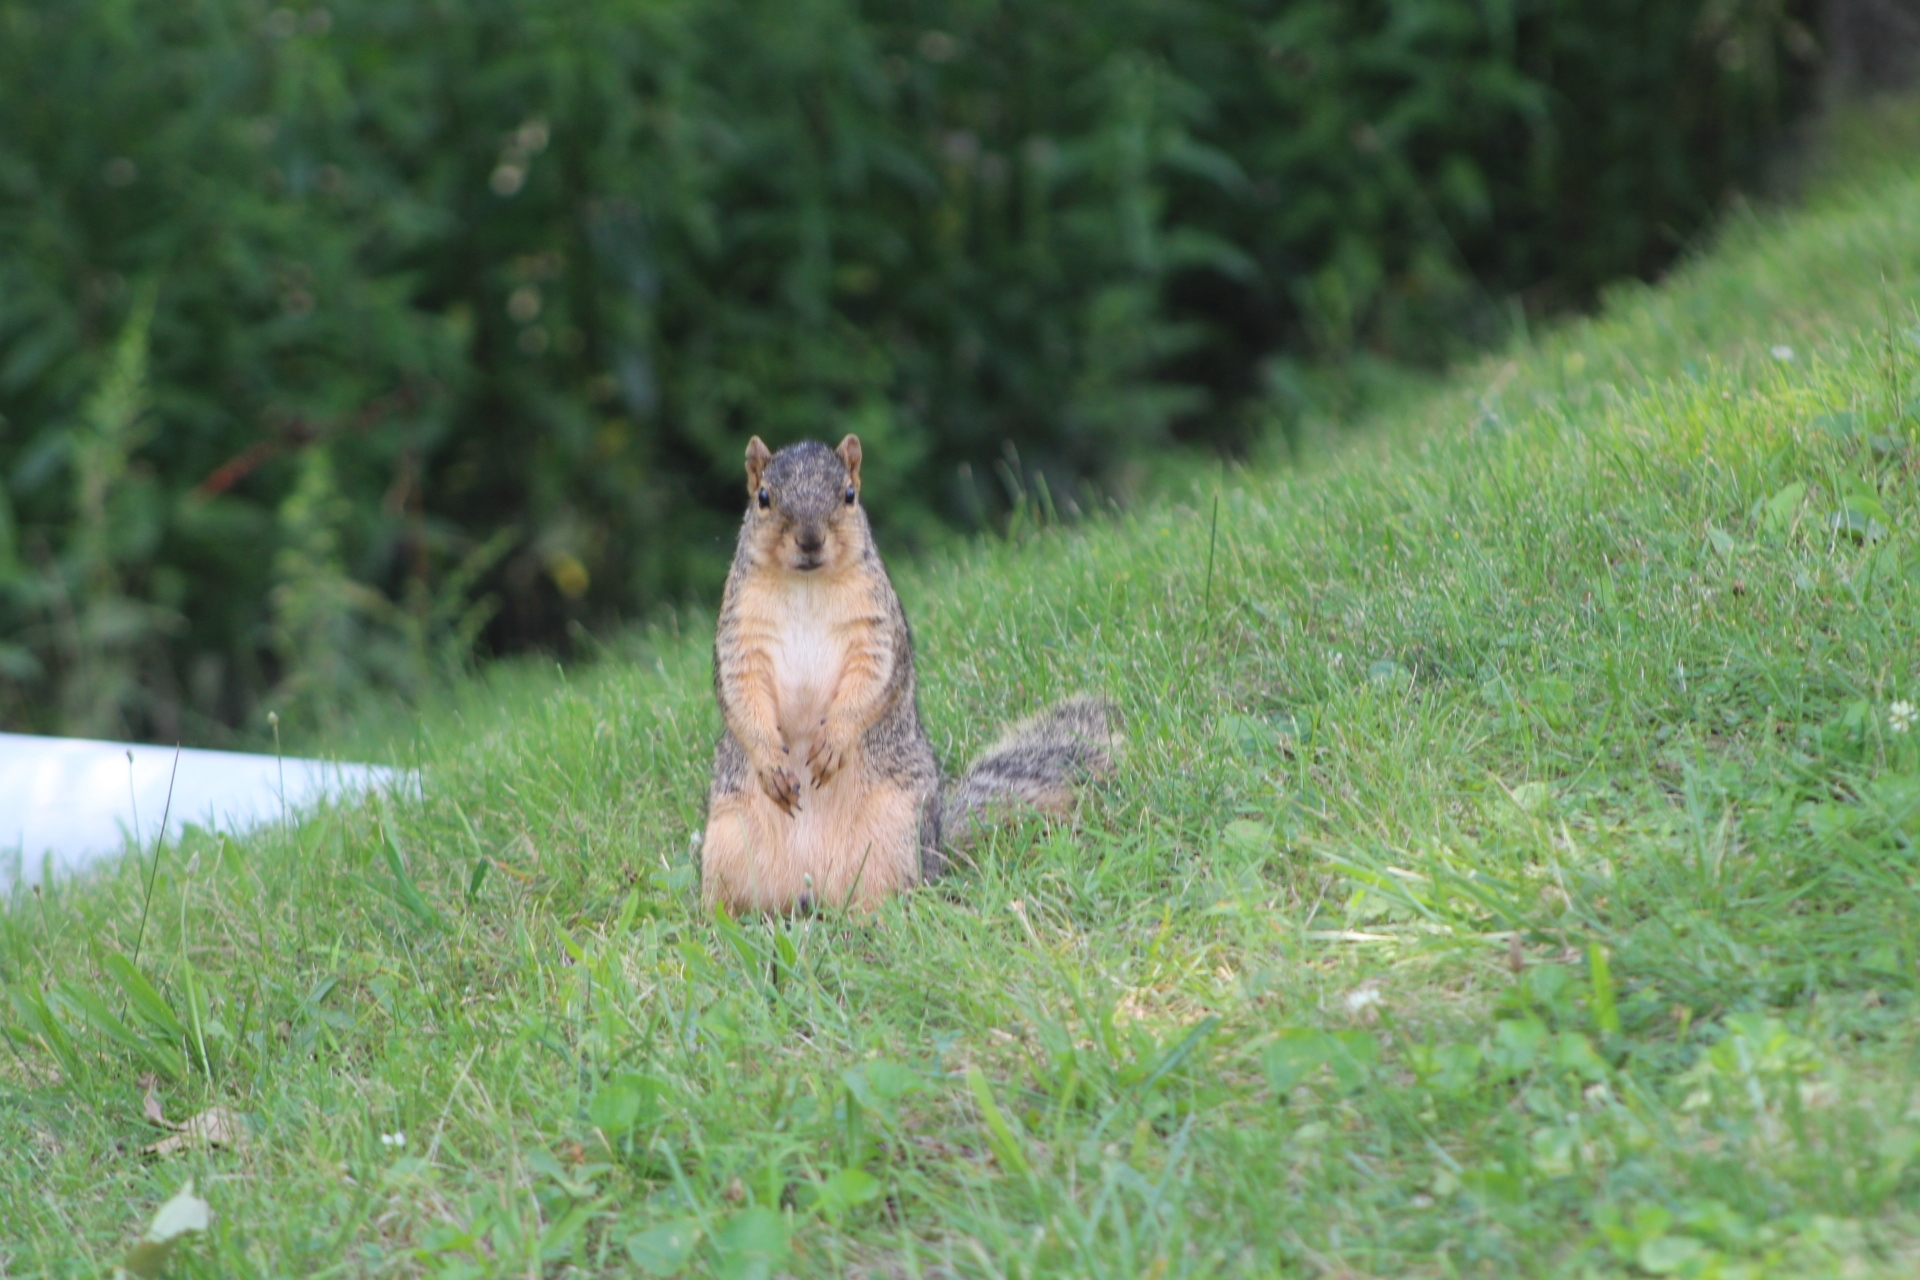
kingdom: Animalia
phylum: Chordata
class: Mammalia
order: Rodentia
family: Sciuridae
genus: Sciurus
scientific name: Sciurus niger
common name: Fox squirrel
